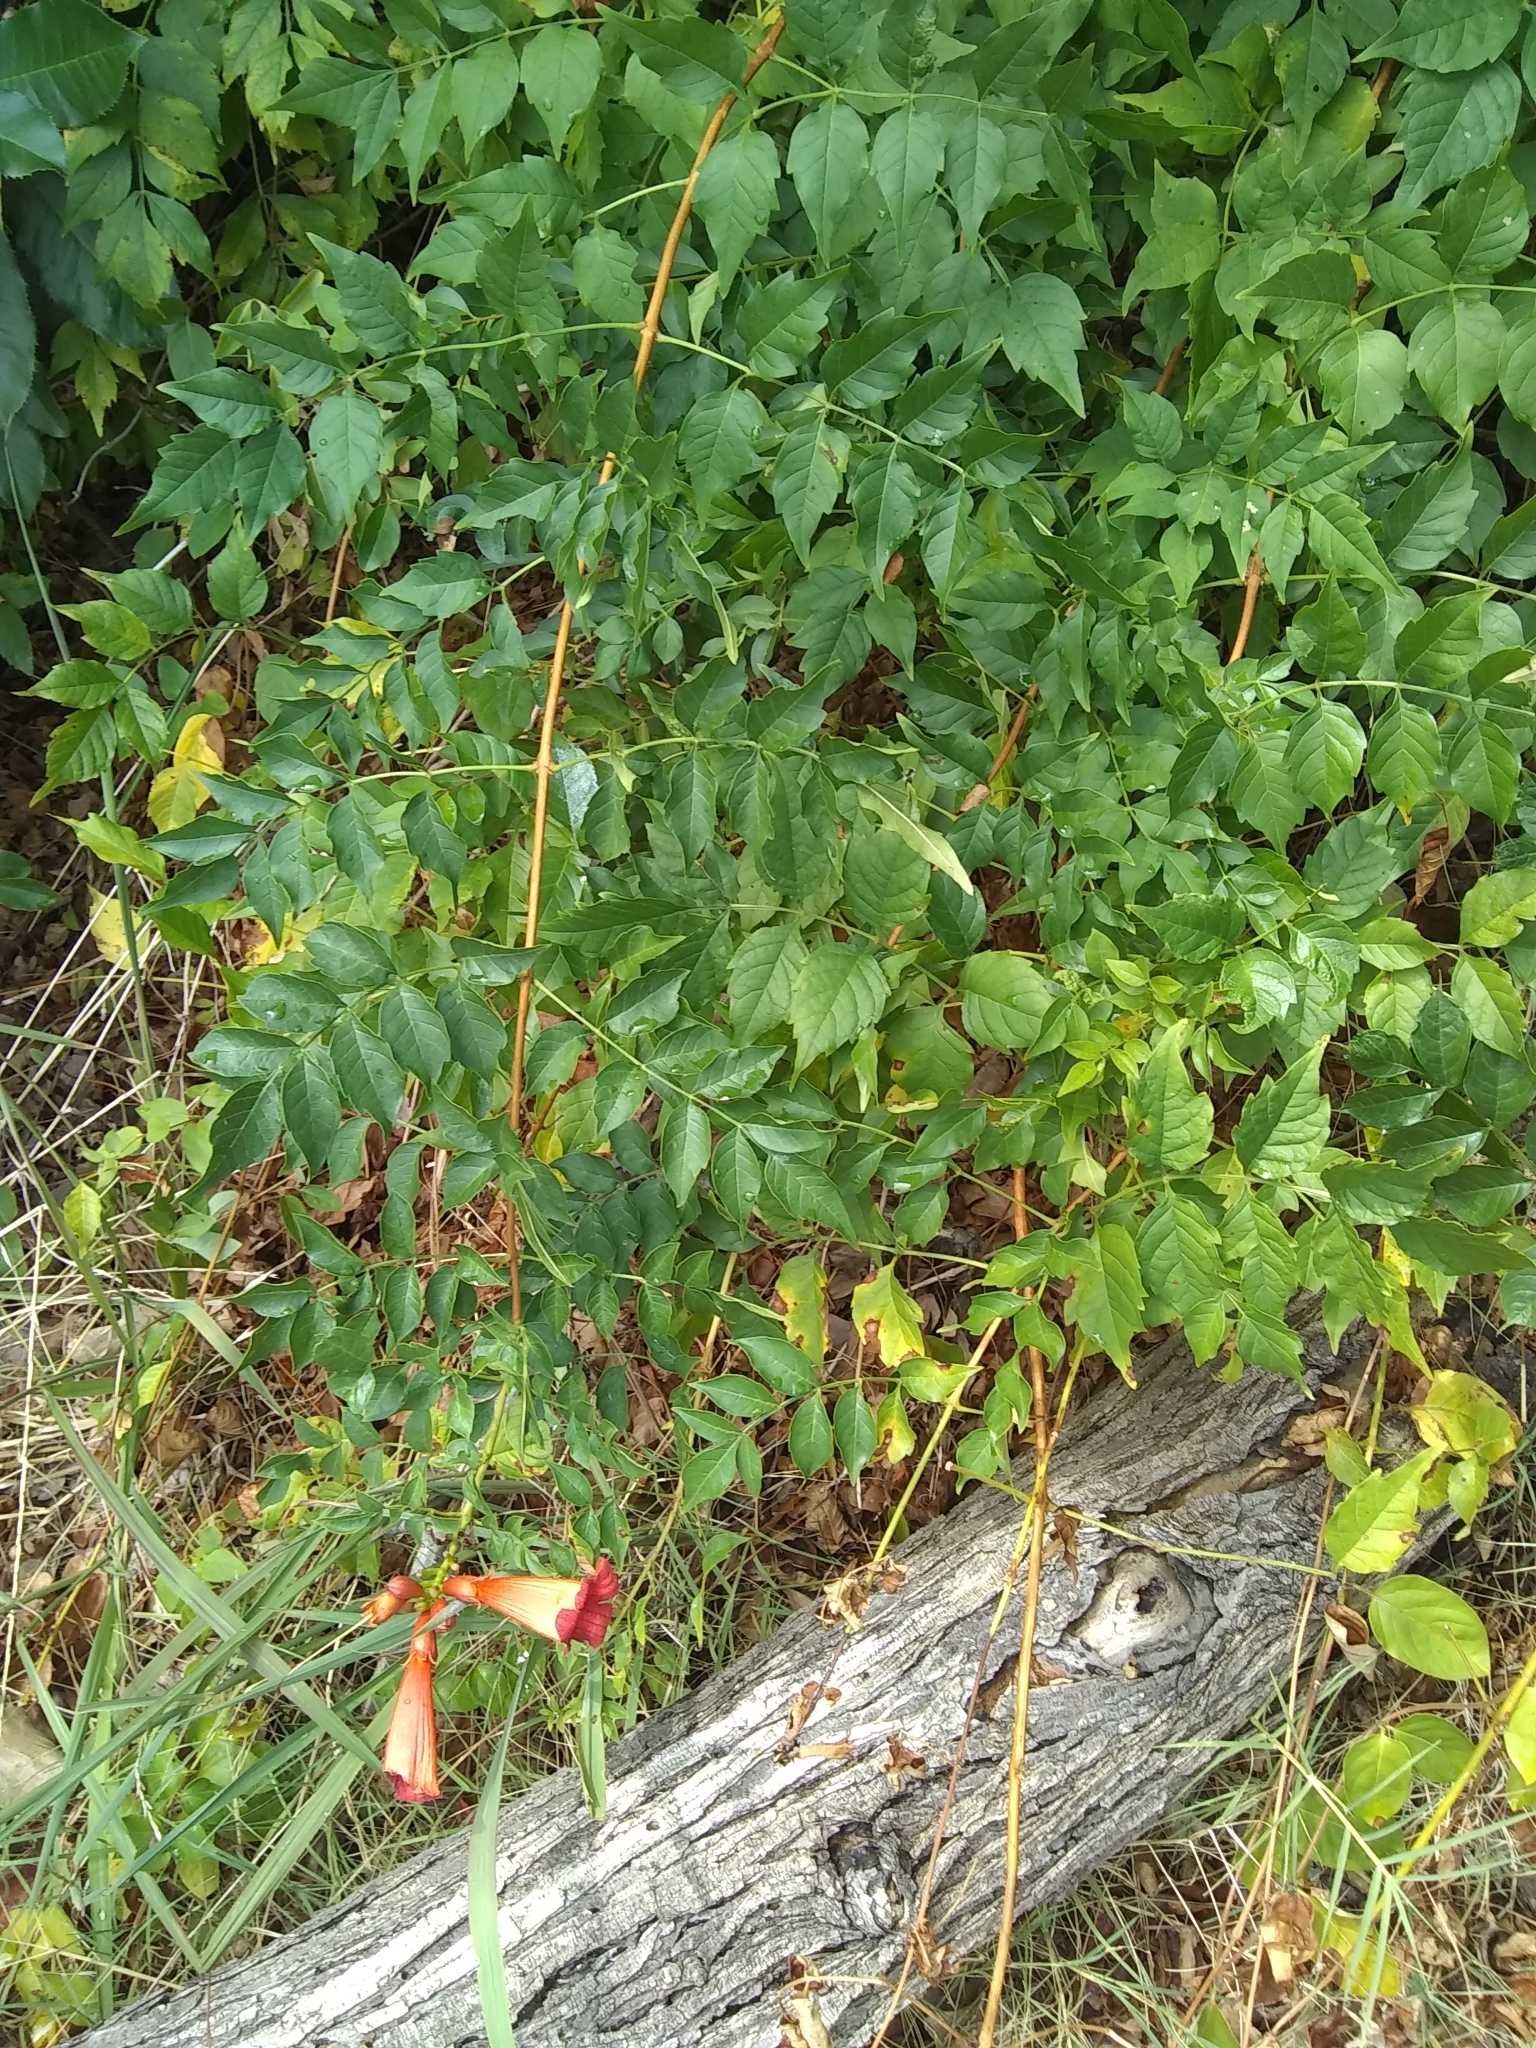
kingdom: Plantae
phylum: Tracheophyta
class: Magnoliopsida
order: Lamiales
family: Bignoniaceae
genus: Campsis
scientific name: Campsis radicans
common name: Trumpet-creeper
